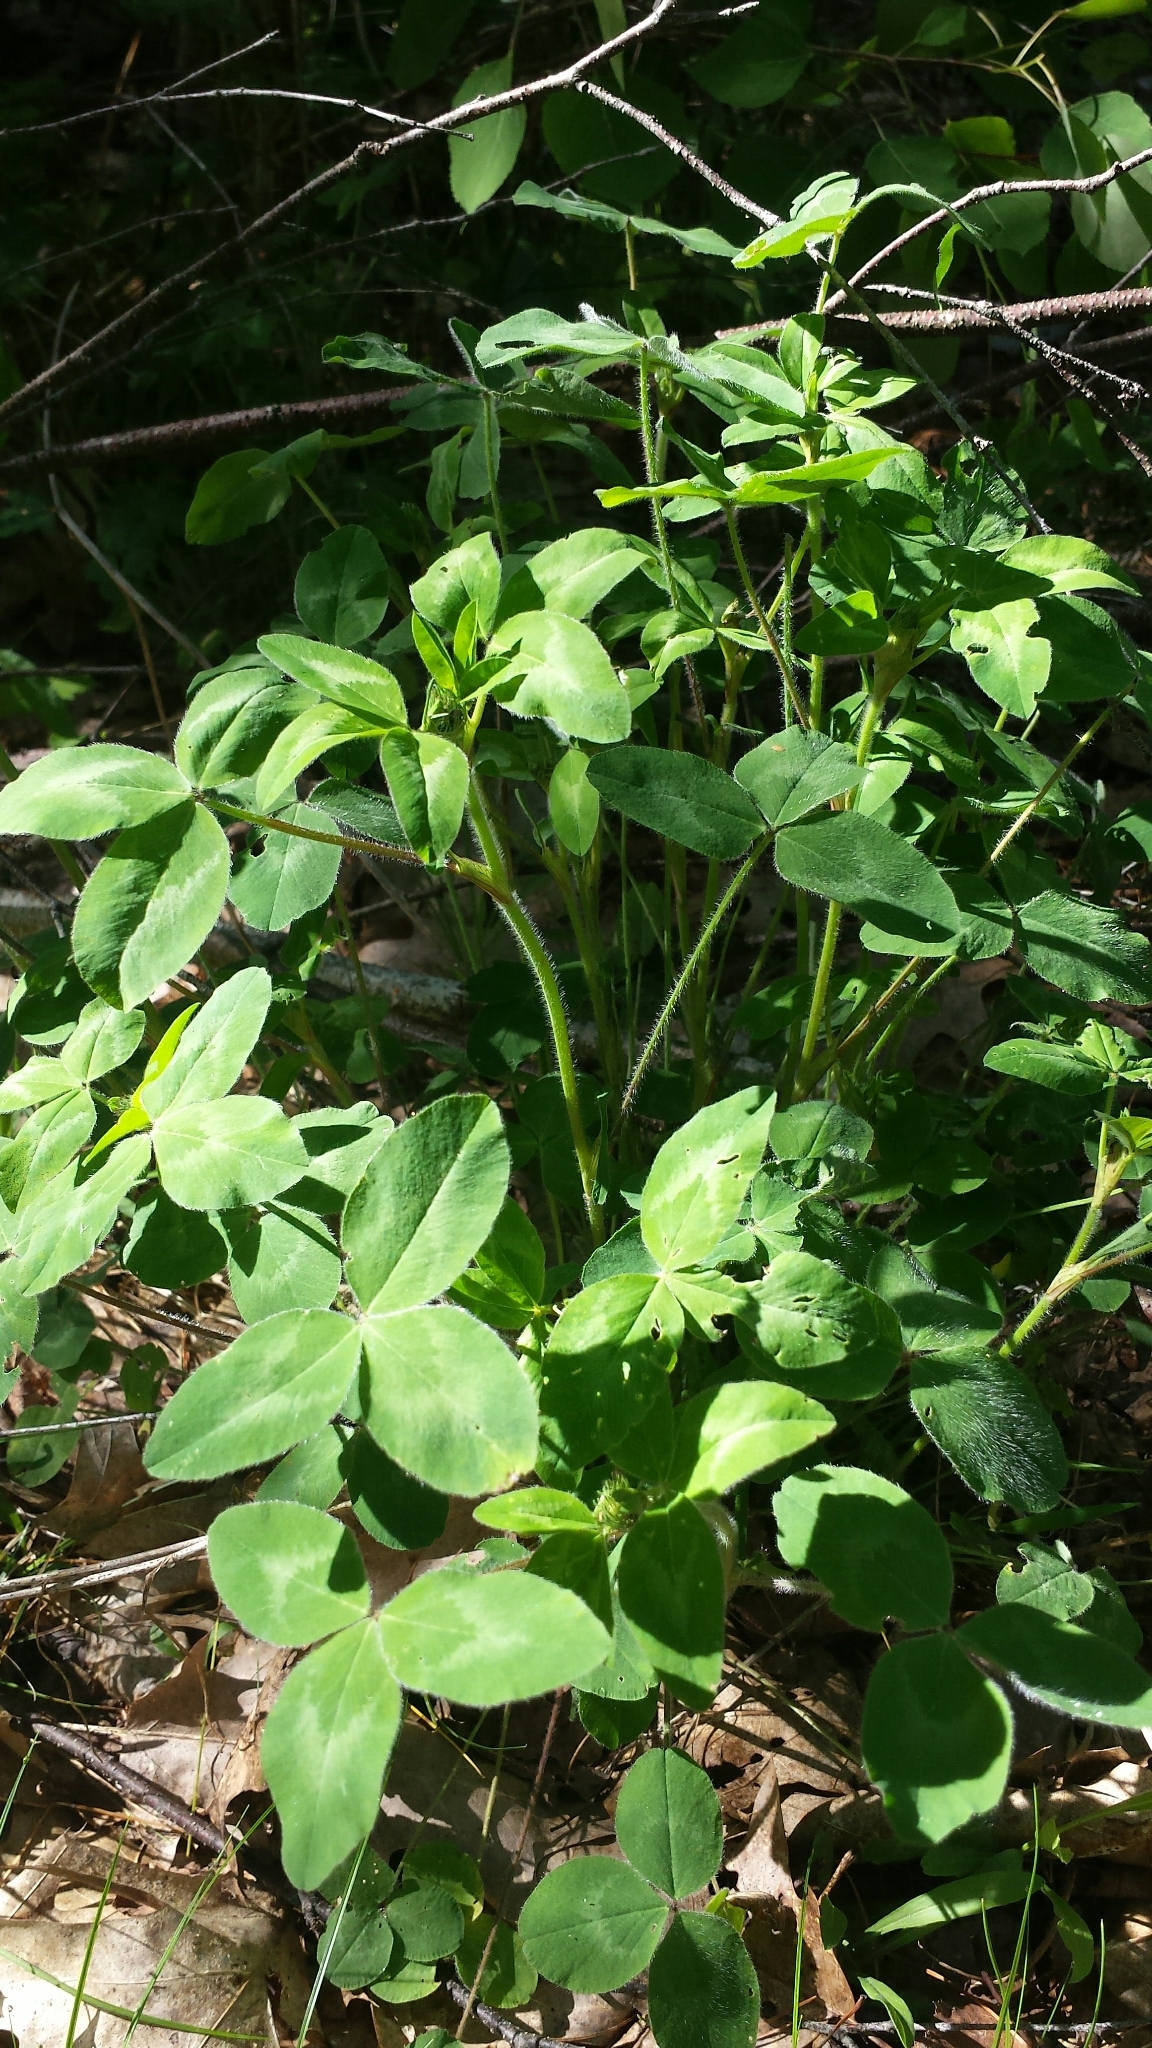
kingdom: Plantae
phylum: Tracheophyta
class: Magnoliopsida
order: Fabales
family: Fabaceae
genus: Trifolium
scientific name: Trifolium pratense
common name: Red clover
